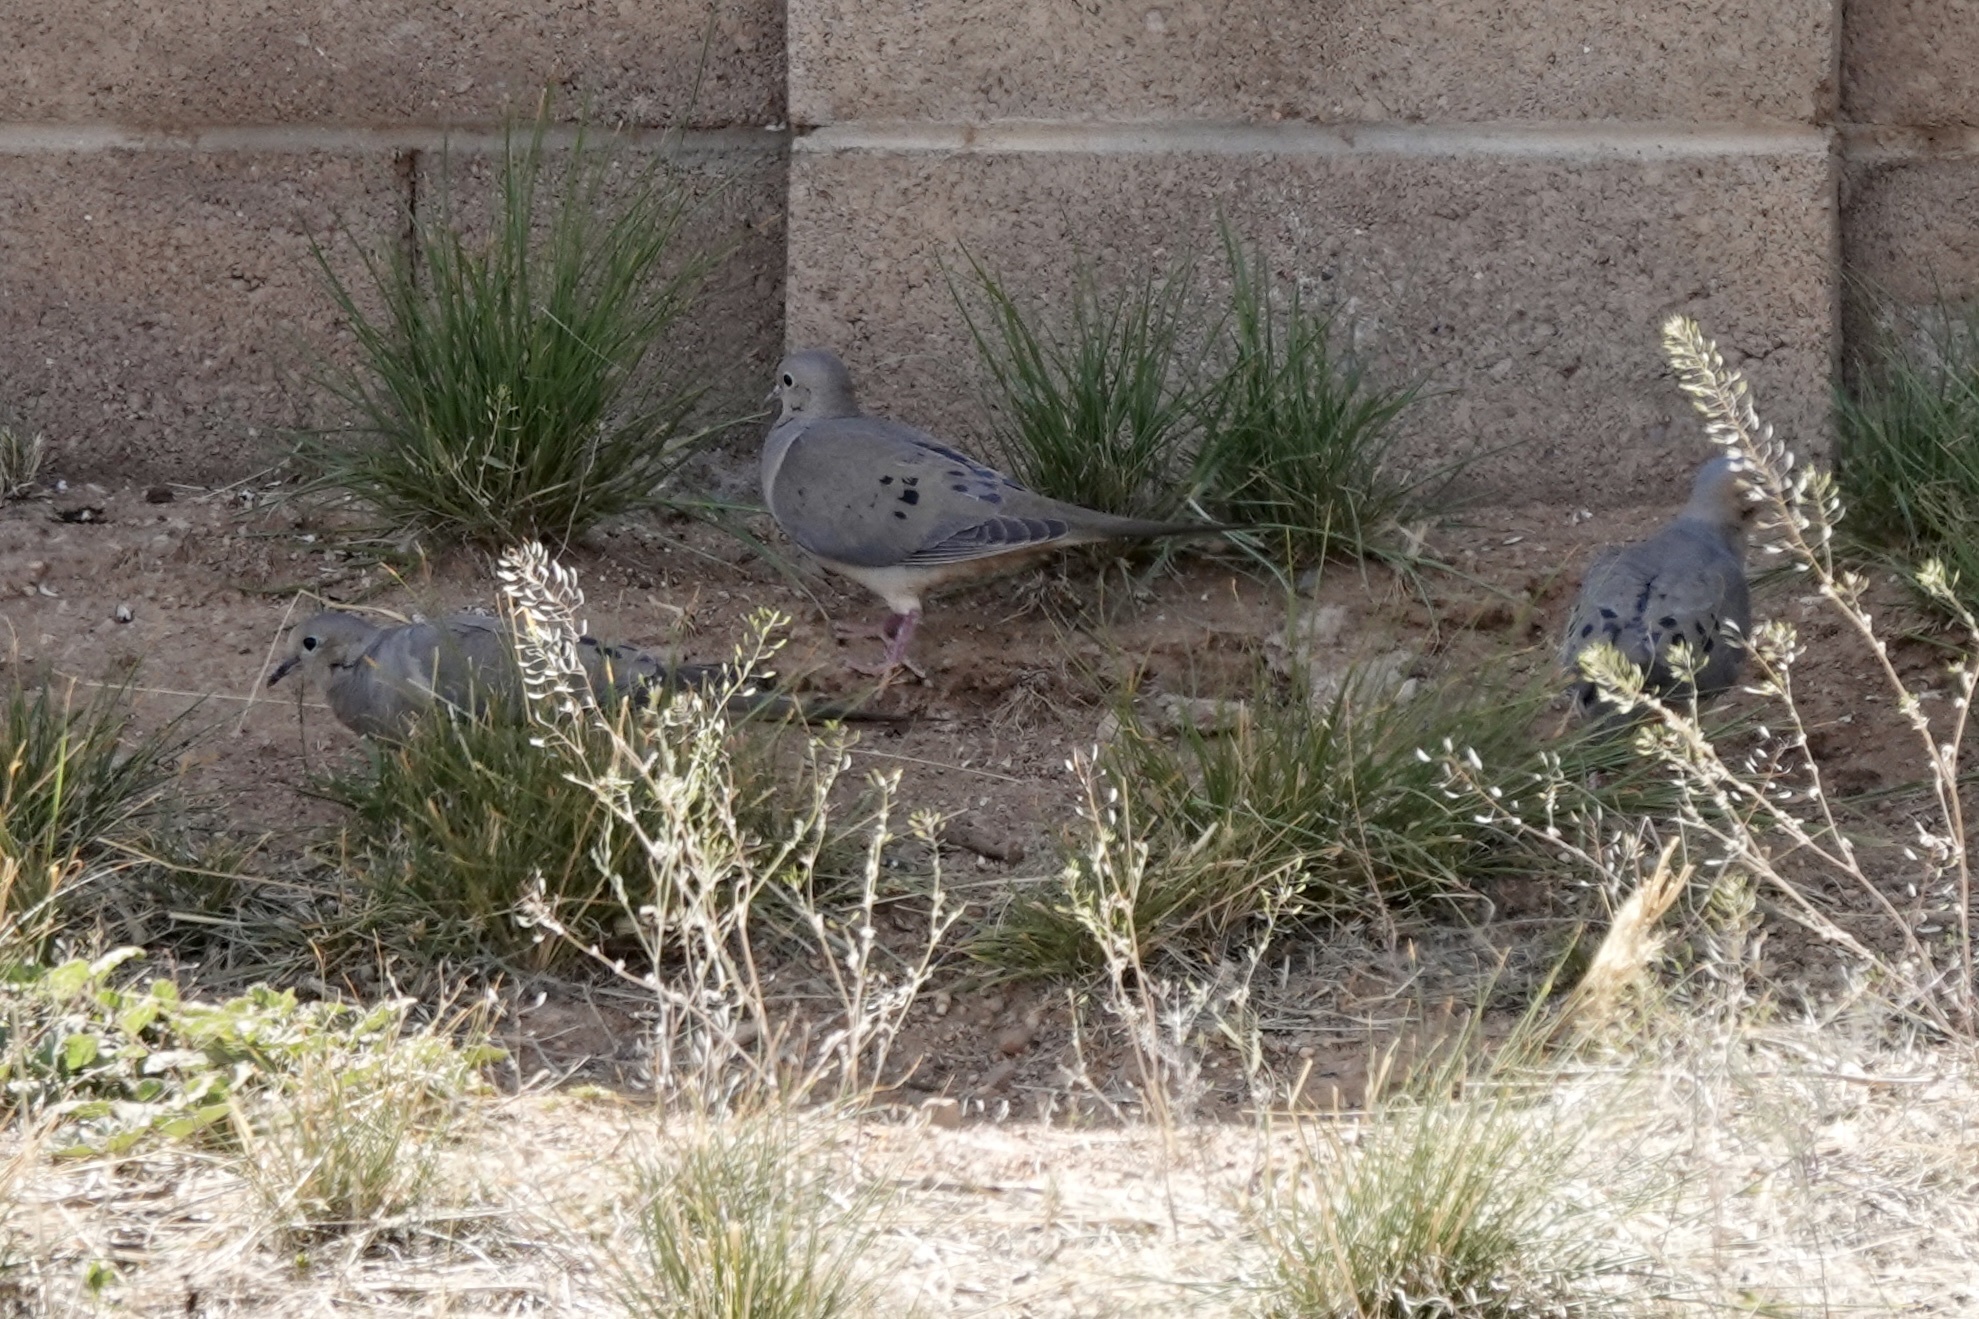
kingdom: Animalia
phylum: Chordata
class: Aves
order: Columbiformes
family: Columbidae
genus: Zenaida
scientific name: Zenaida macroura
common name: Mourning dove
